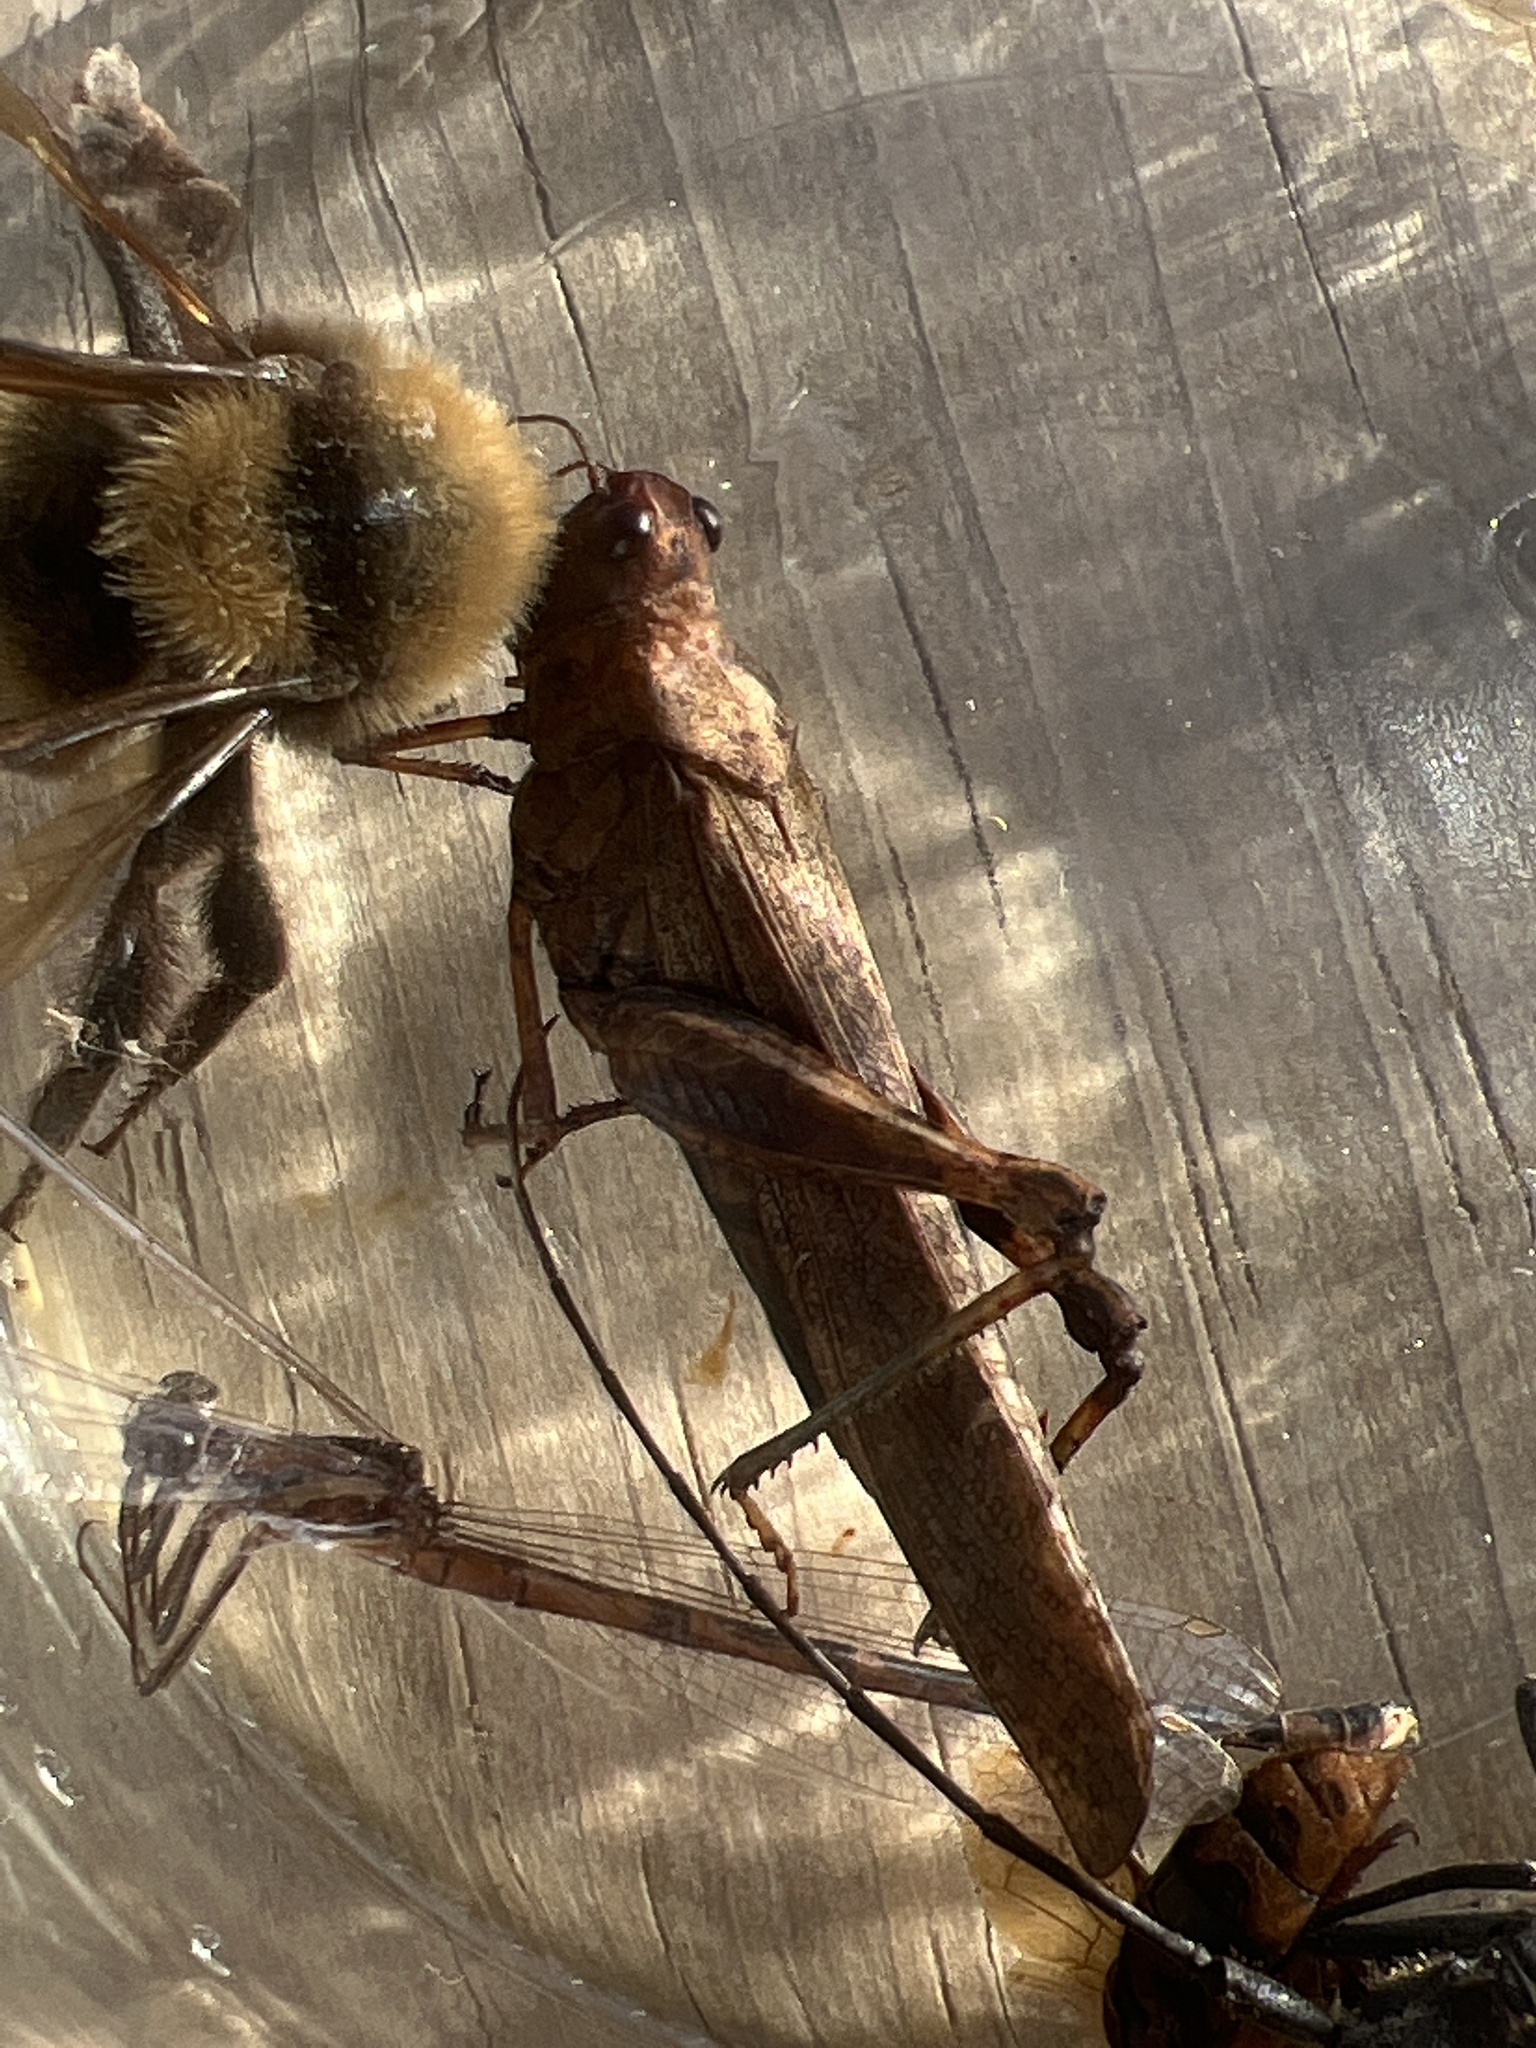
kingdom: Animalia
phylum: Arthropoda
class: Insecta
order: Orthoptera
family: Acrididae
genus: Trimerotropis
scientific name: Trimerotropis verruculata
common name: Crackling forest grasshopper
